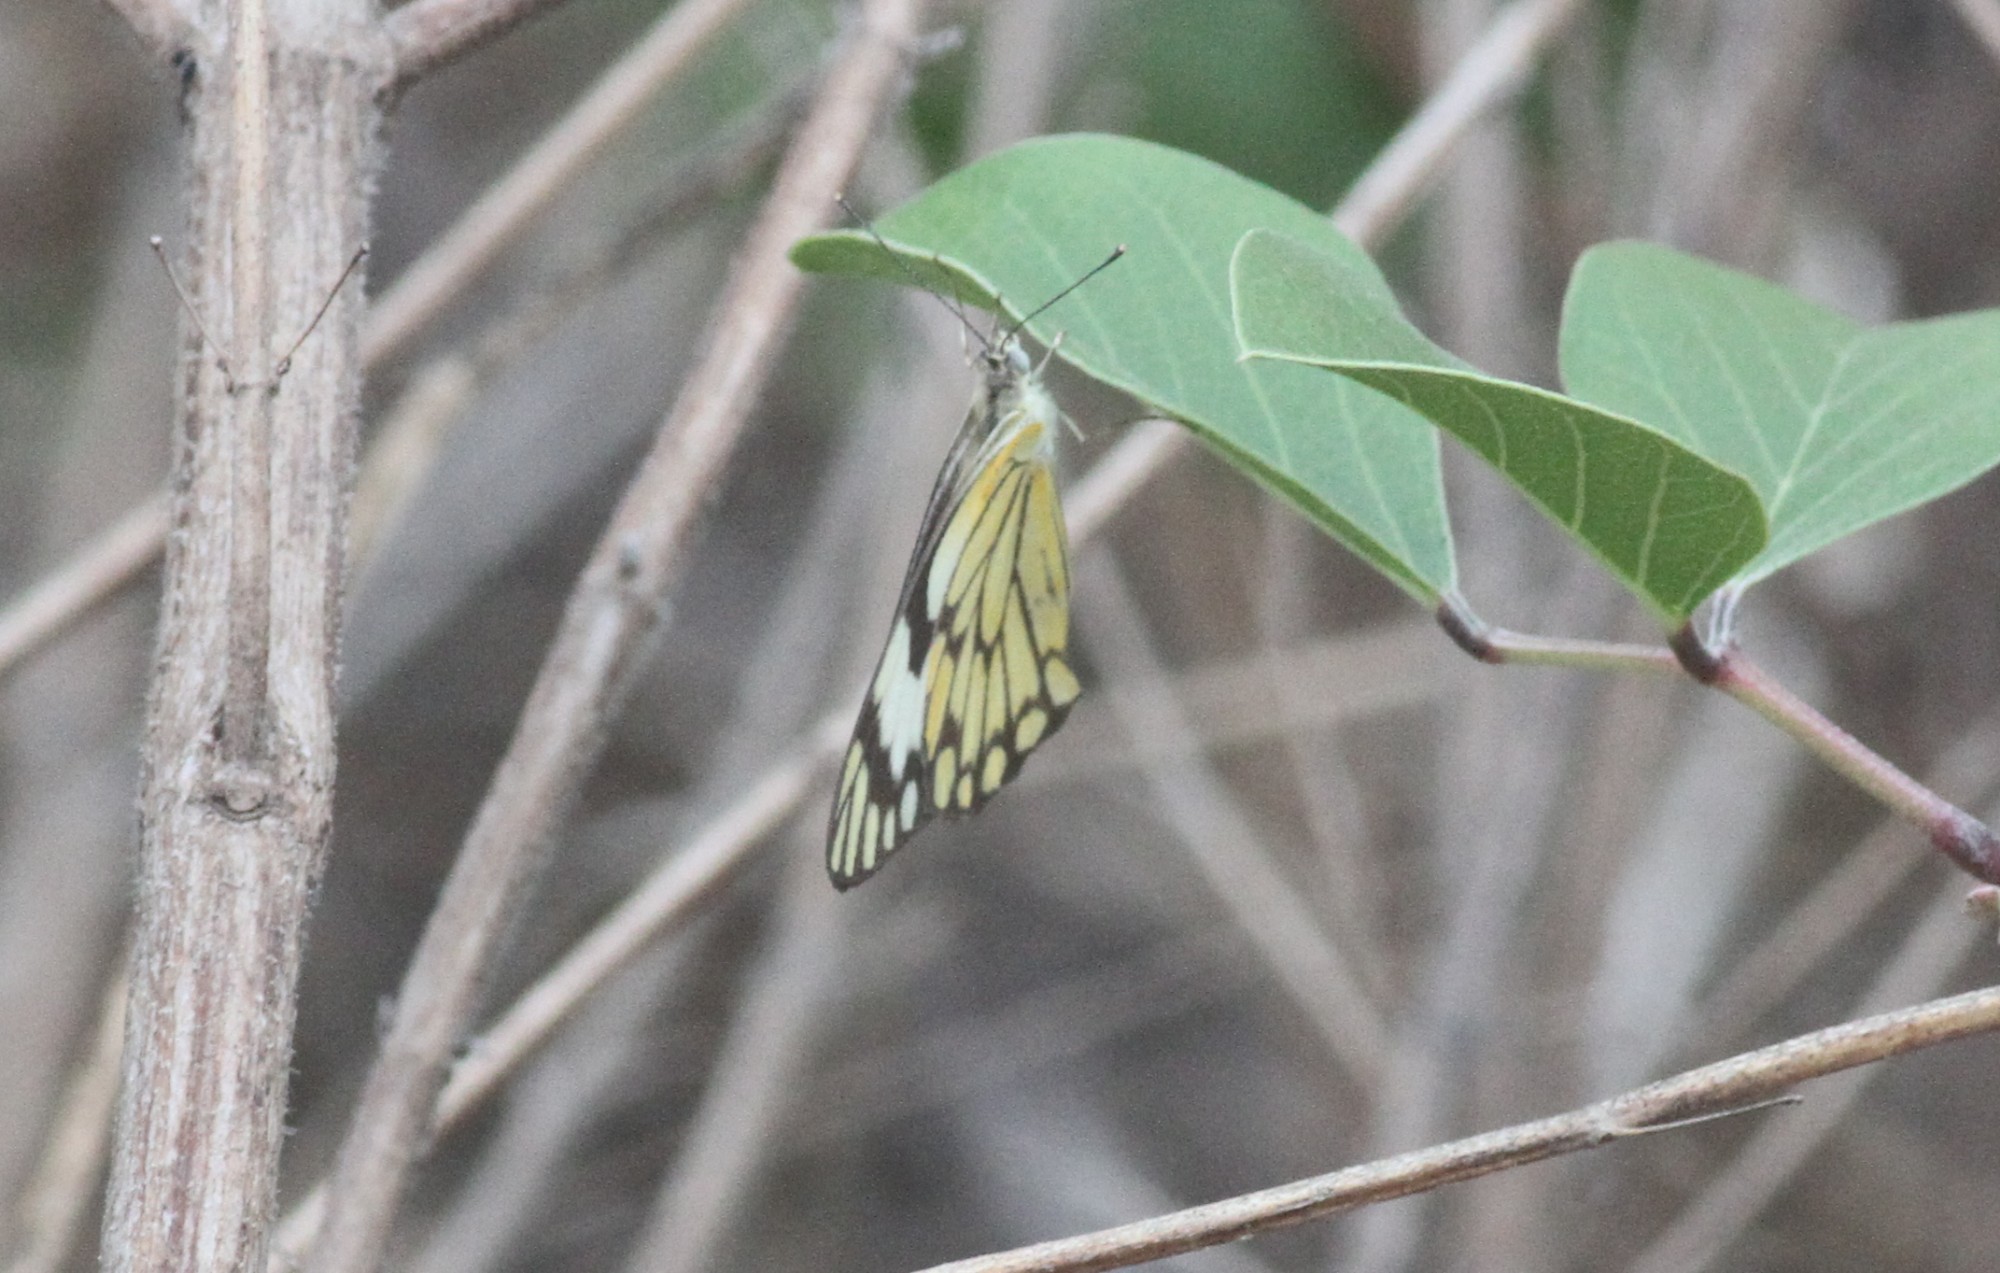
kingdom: Animalia
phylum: Arthropoda
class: Insecta
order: Lepidoptera
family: Pieridae
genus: Belenois
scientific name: Belenois aurota
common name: Brown-veined white
